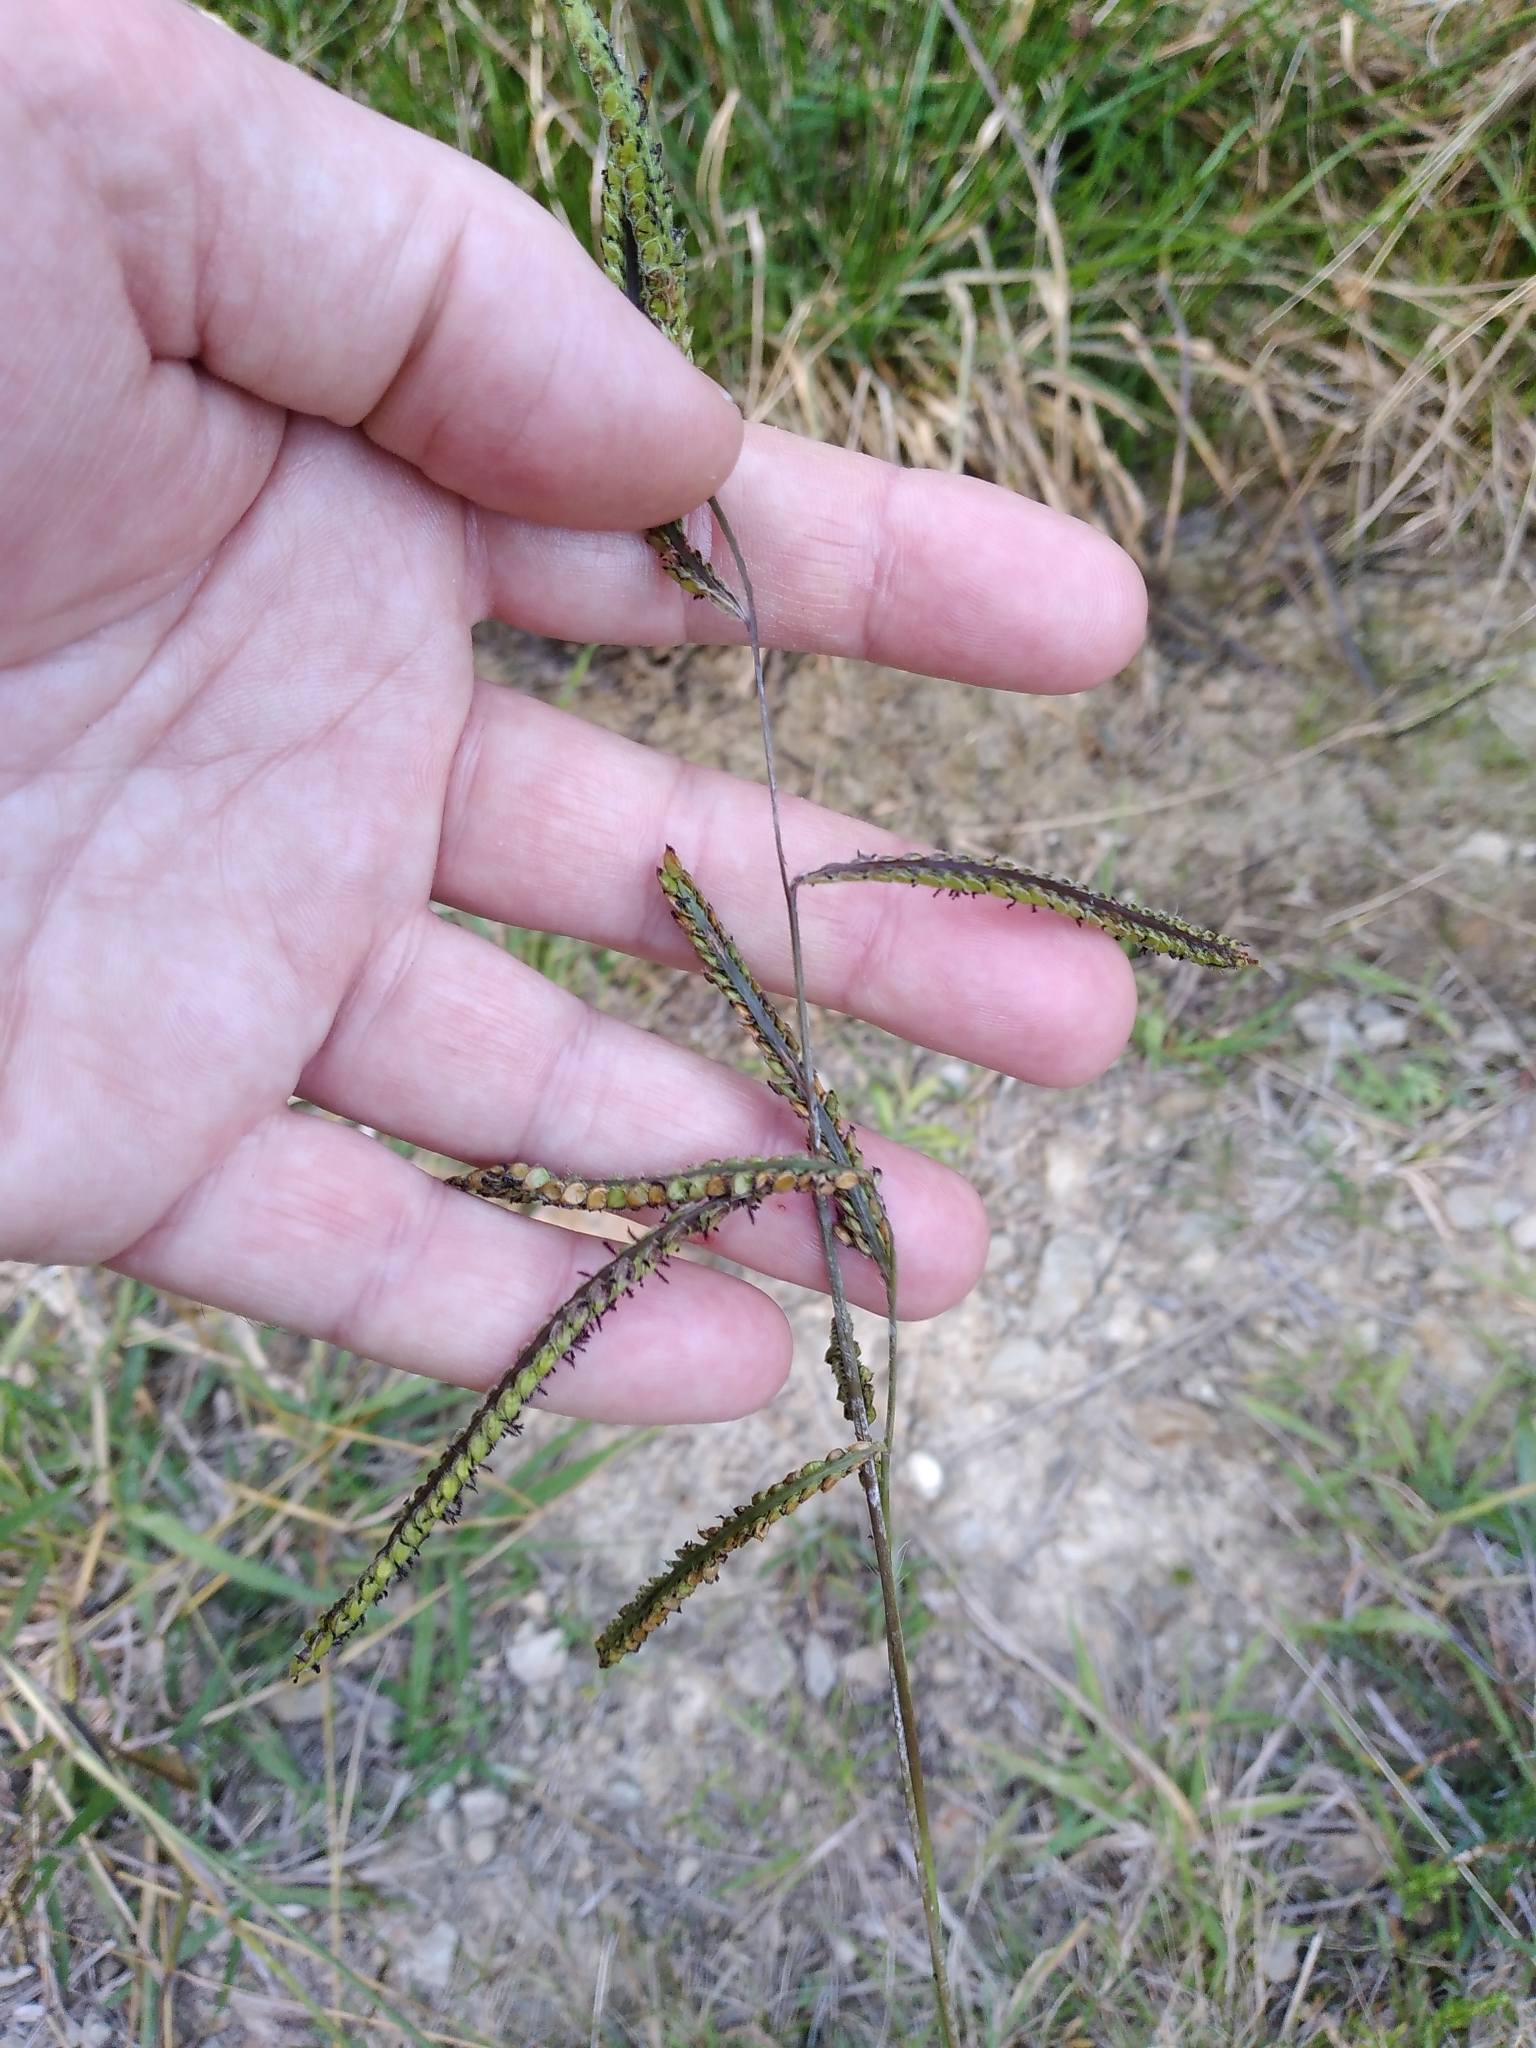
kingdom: Plantae
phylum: Tracheophyta
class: Liliopsida
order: Poales
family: Poaceae
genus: Paspalum
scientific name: Paspalum dilatatum
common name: Dallisgrass
